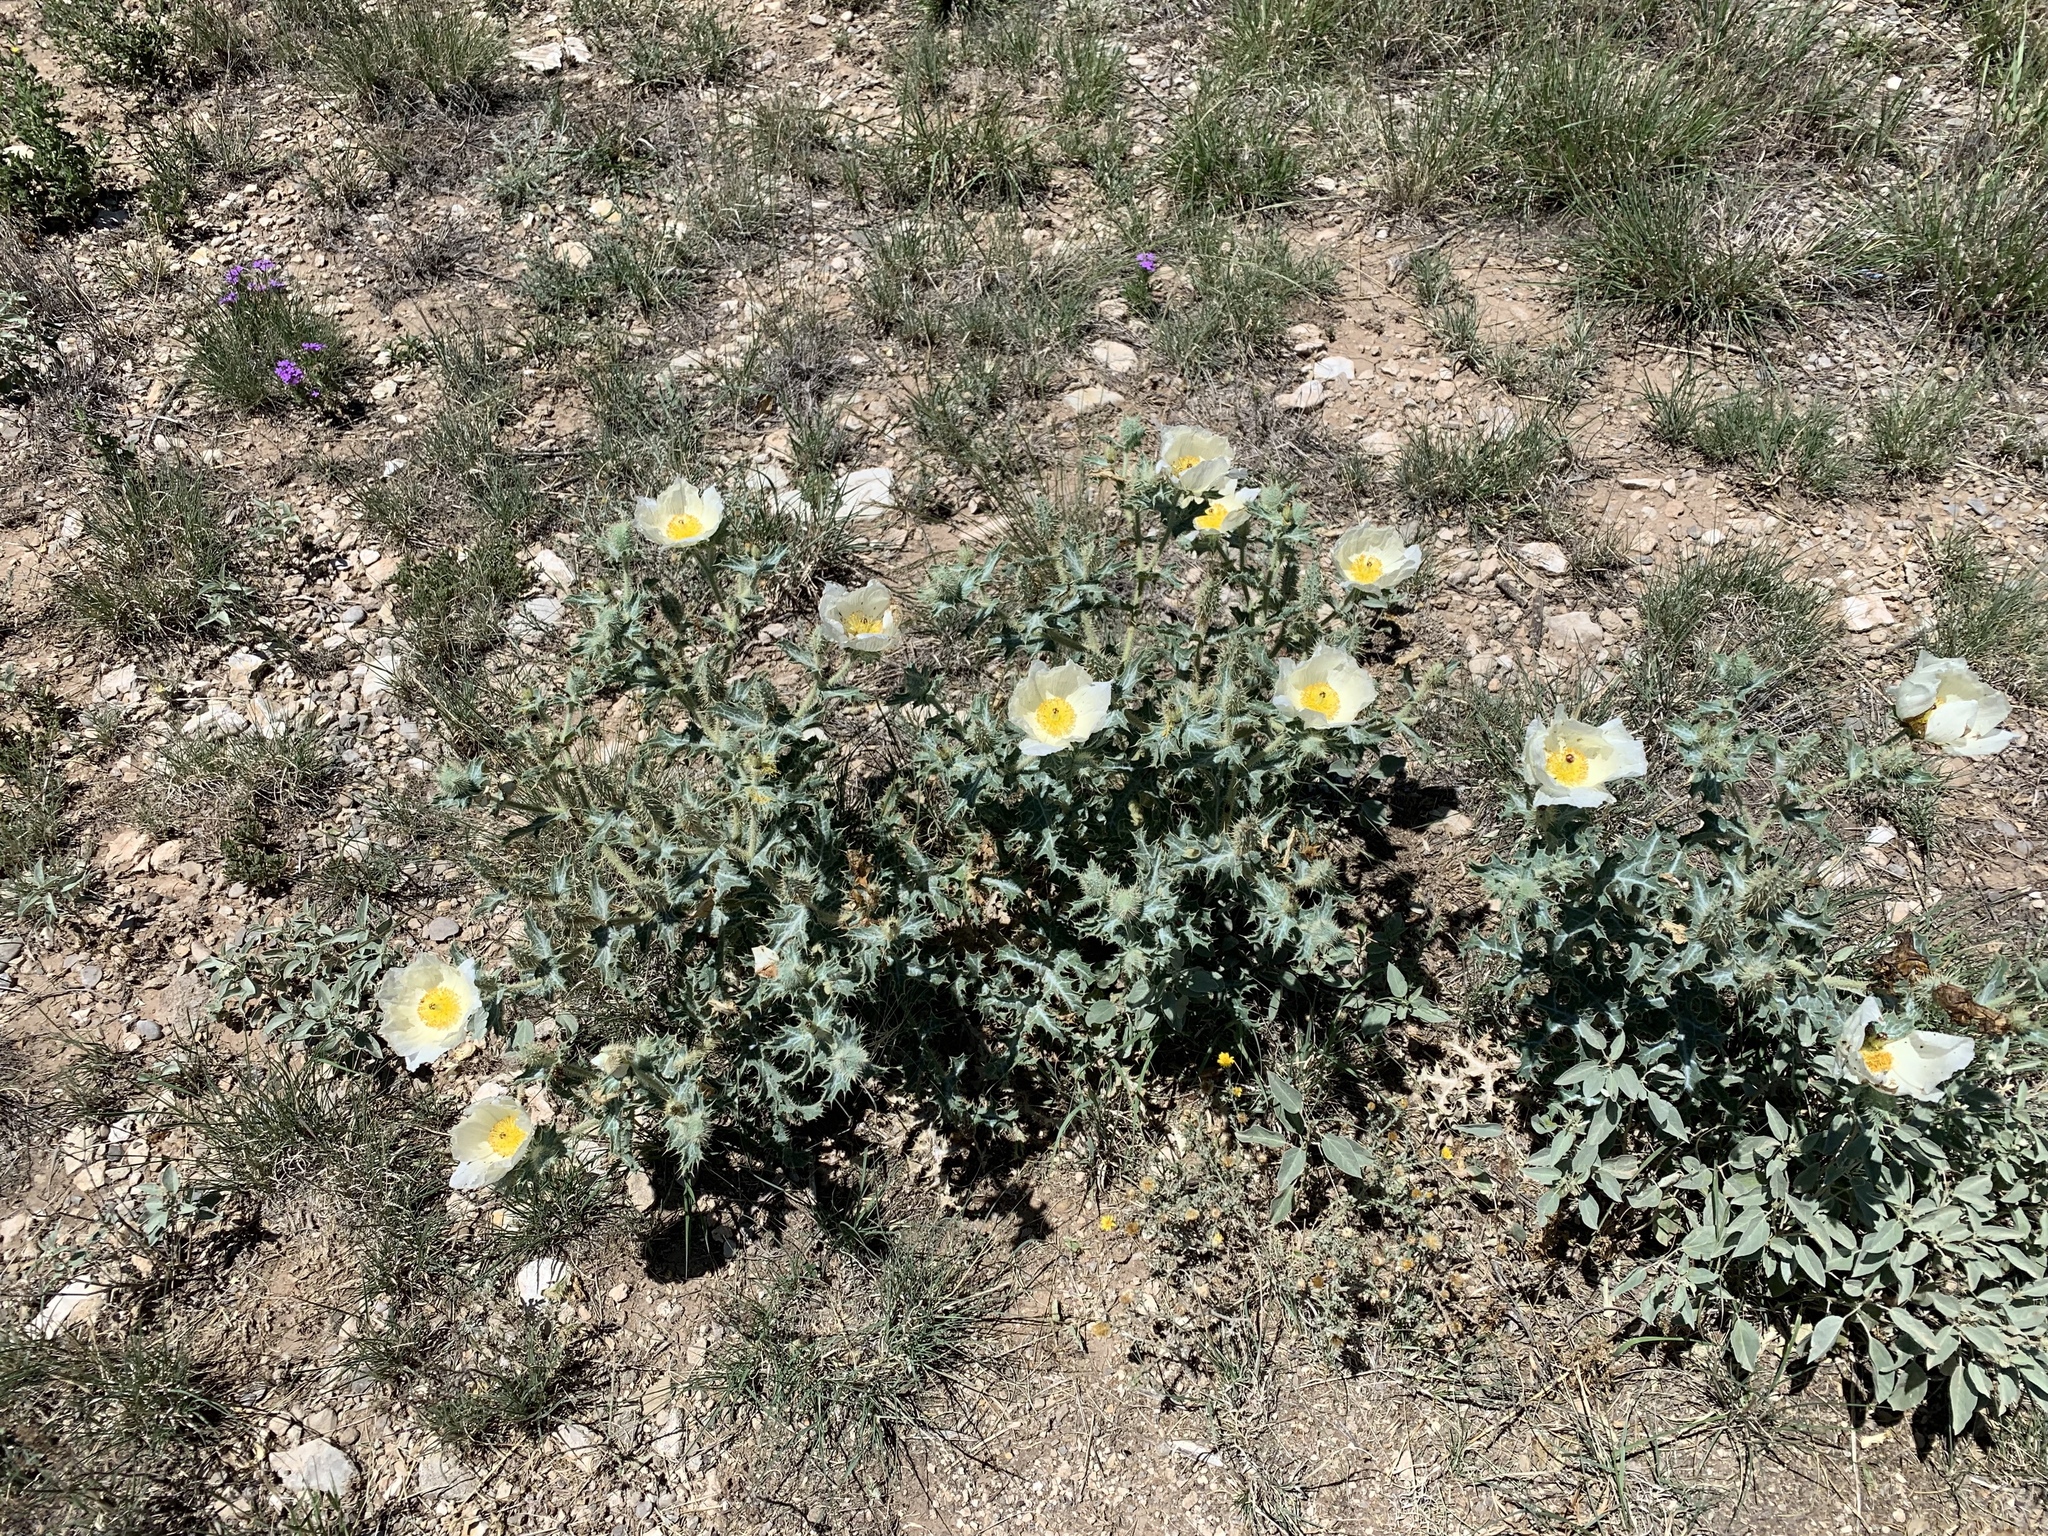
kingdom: Plantae
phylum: Tracheophyta
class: Magnoliopsida
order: Ranunculales
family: Papaveraceae
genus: Argemone
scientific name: Argemone polyanthemos
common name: Plains prickly-poppy
